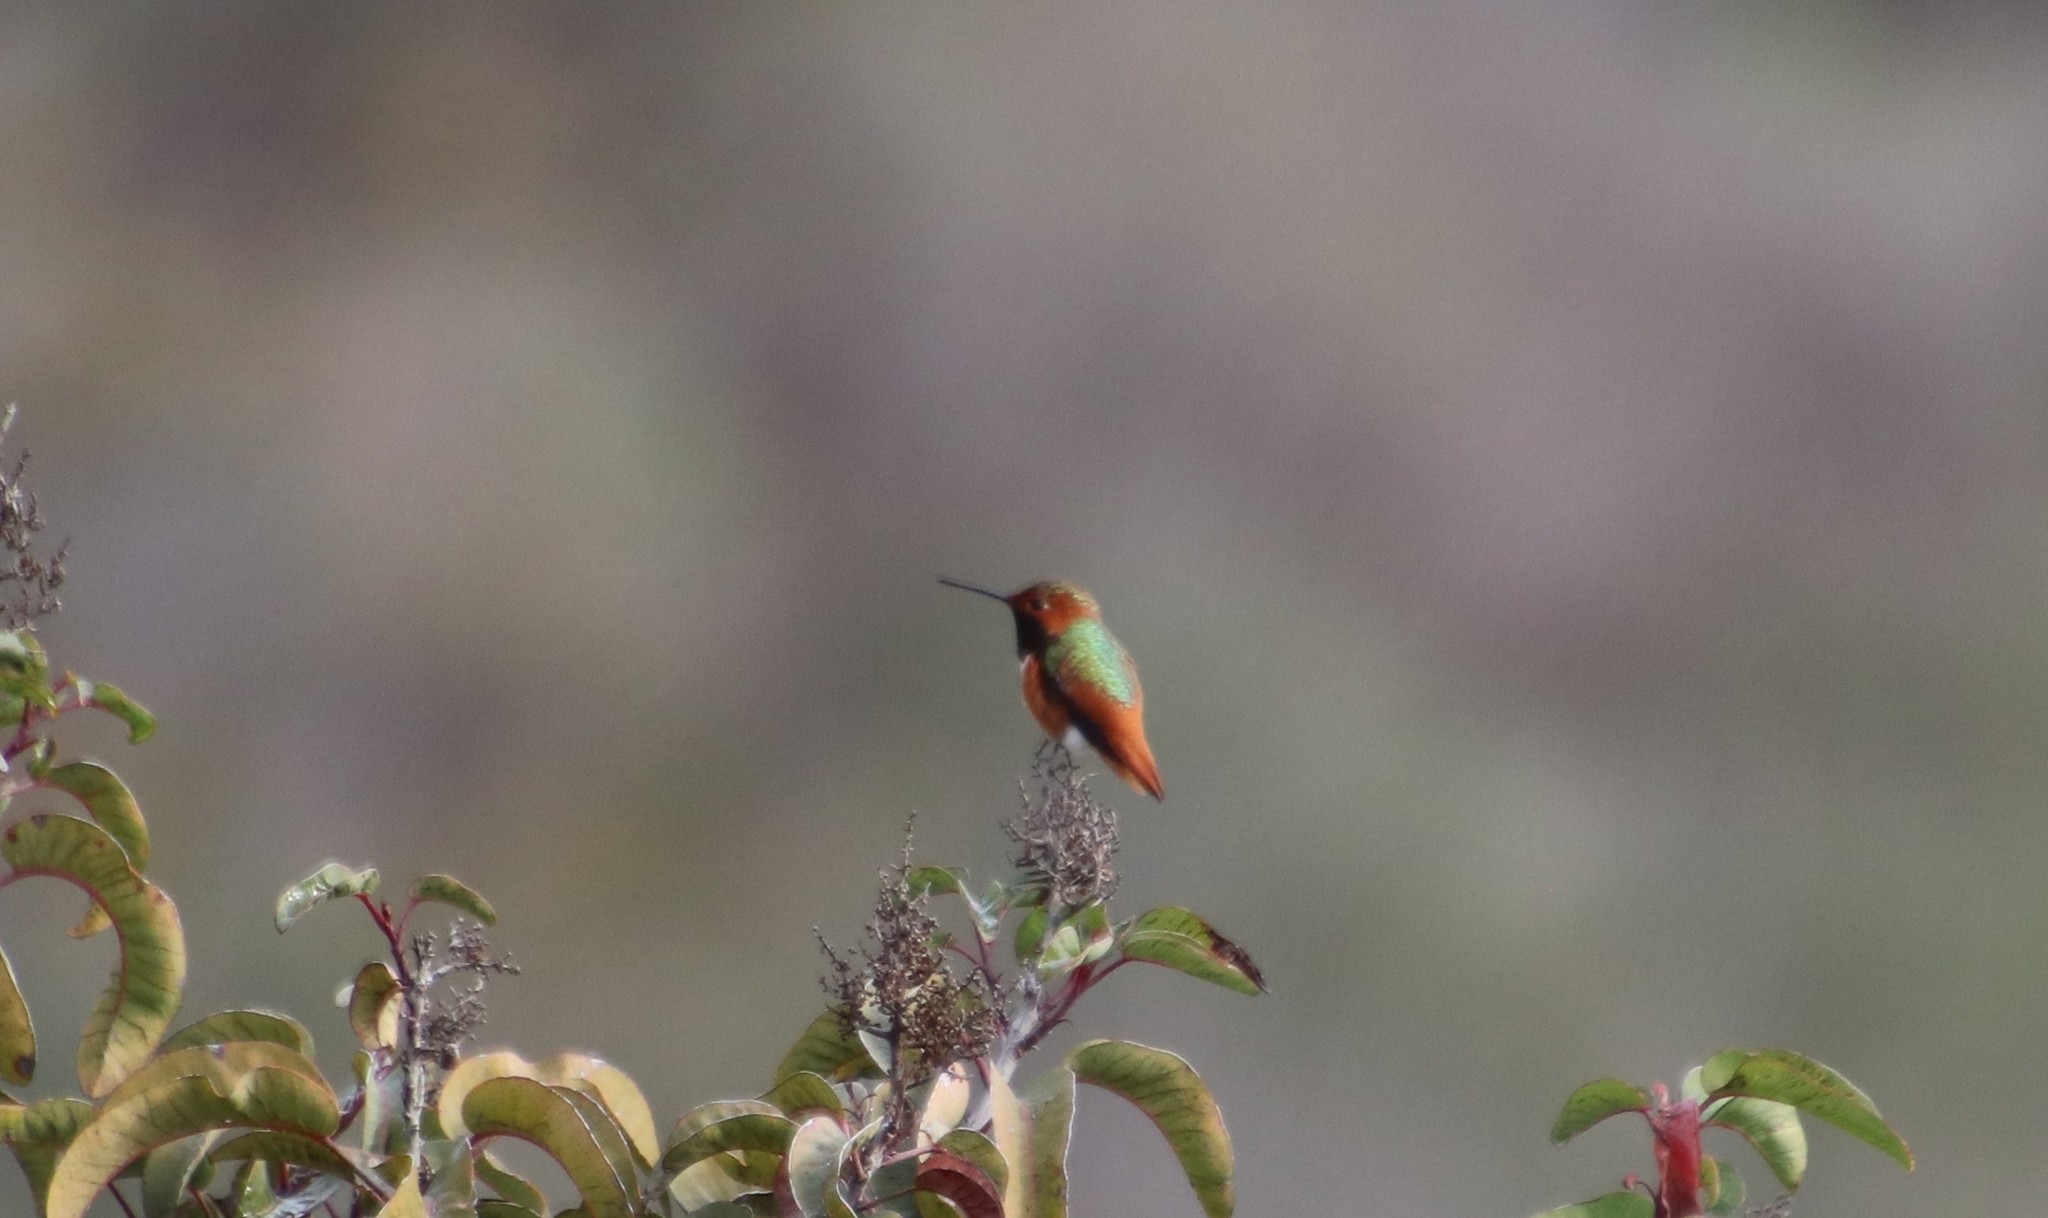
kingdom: Animalia
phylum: Chordata
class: Aves
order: Apodiformes
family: Trochilidae
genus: Selasphorus
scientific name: Selasphorus sasin
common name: Allen's hummingbird
